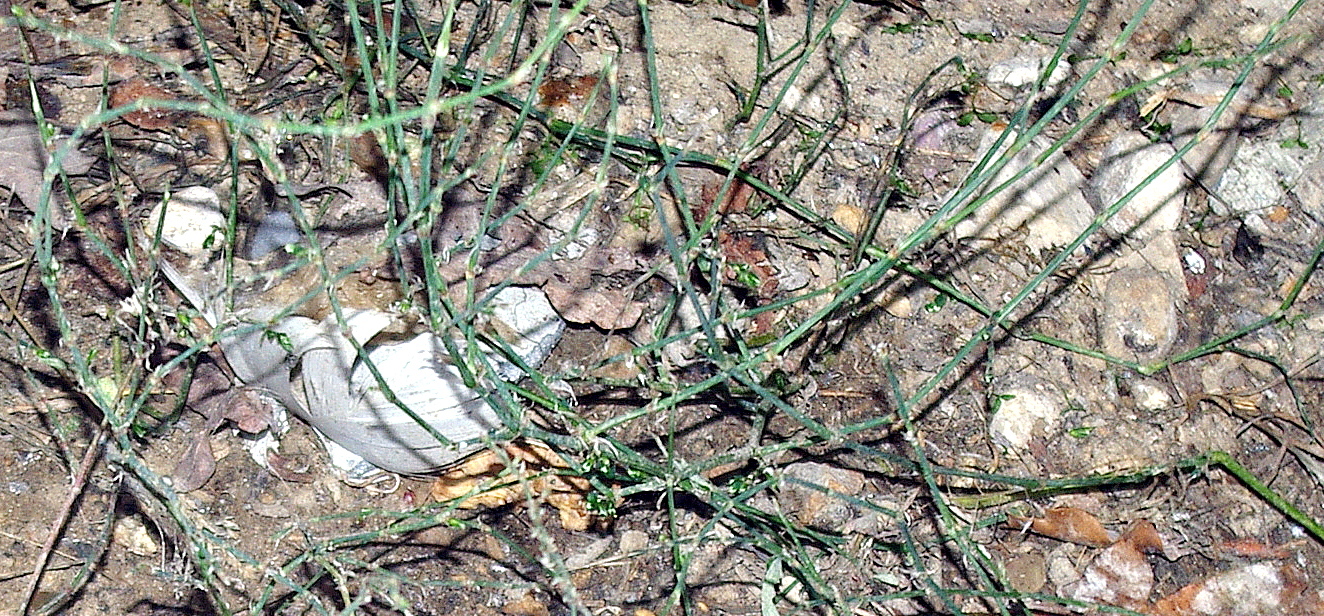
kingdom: Plantae
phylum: Tracheophyta
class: Magnoliopsida
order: Caryophyllales
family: Polygonaceae
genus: Polygonum
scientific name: Polygonum
